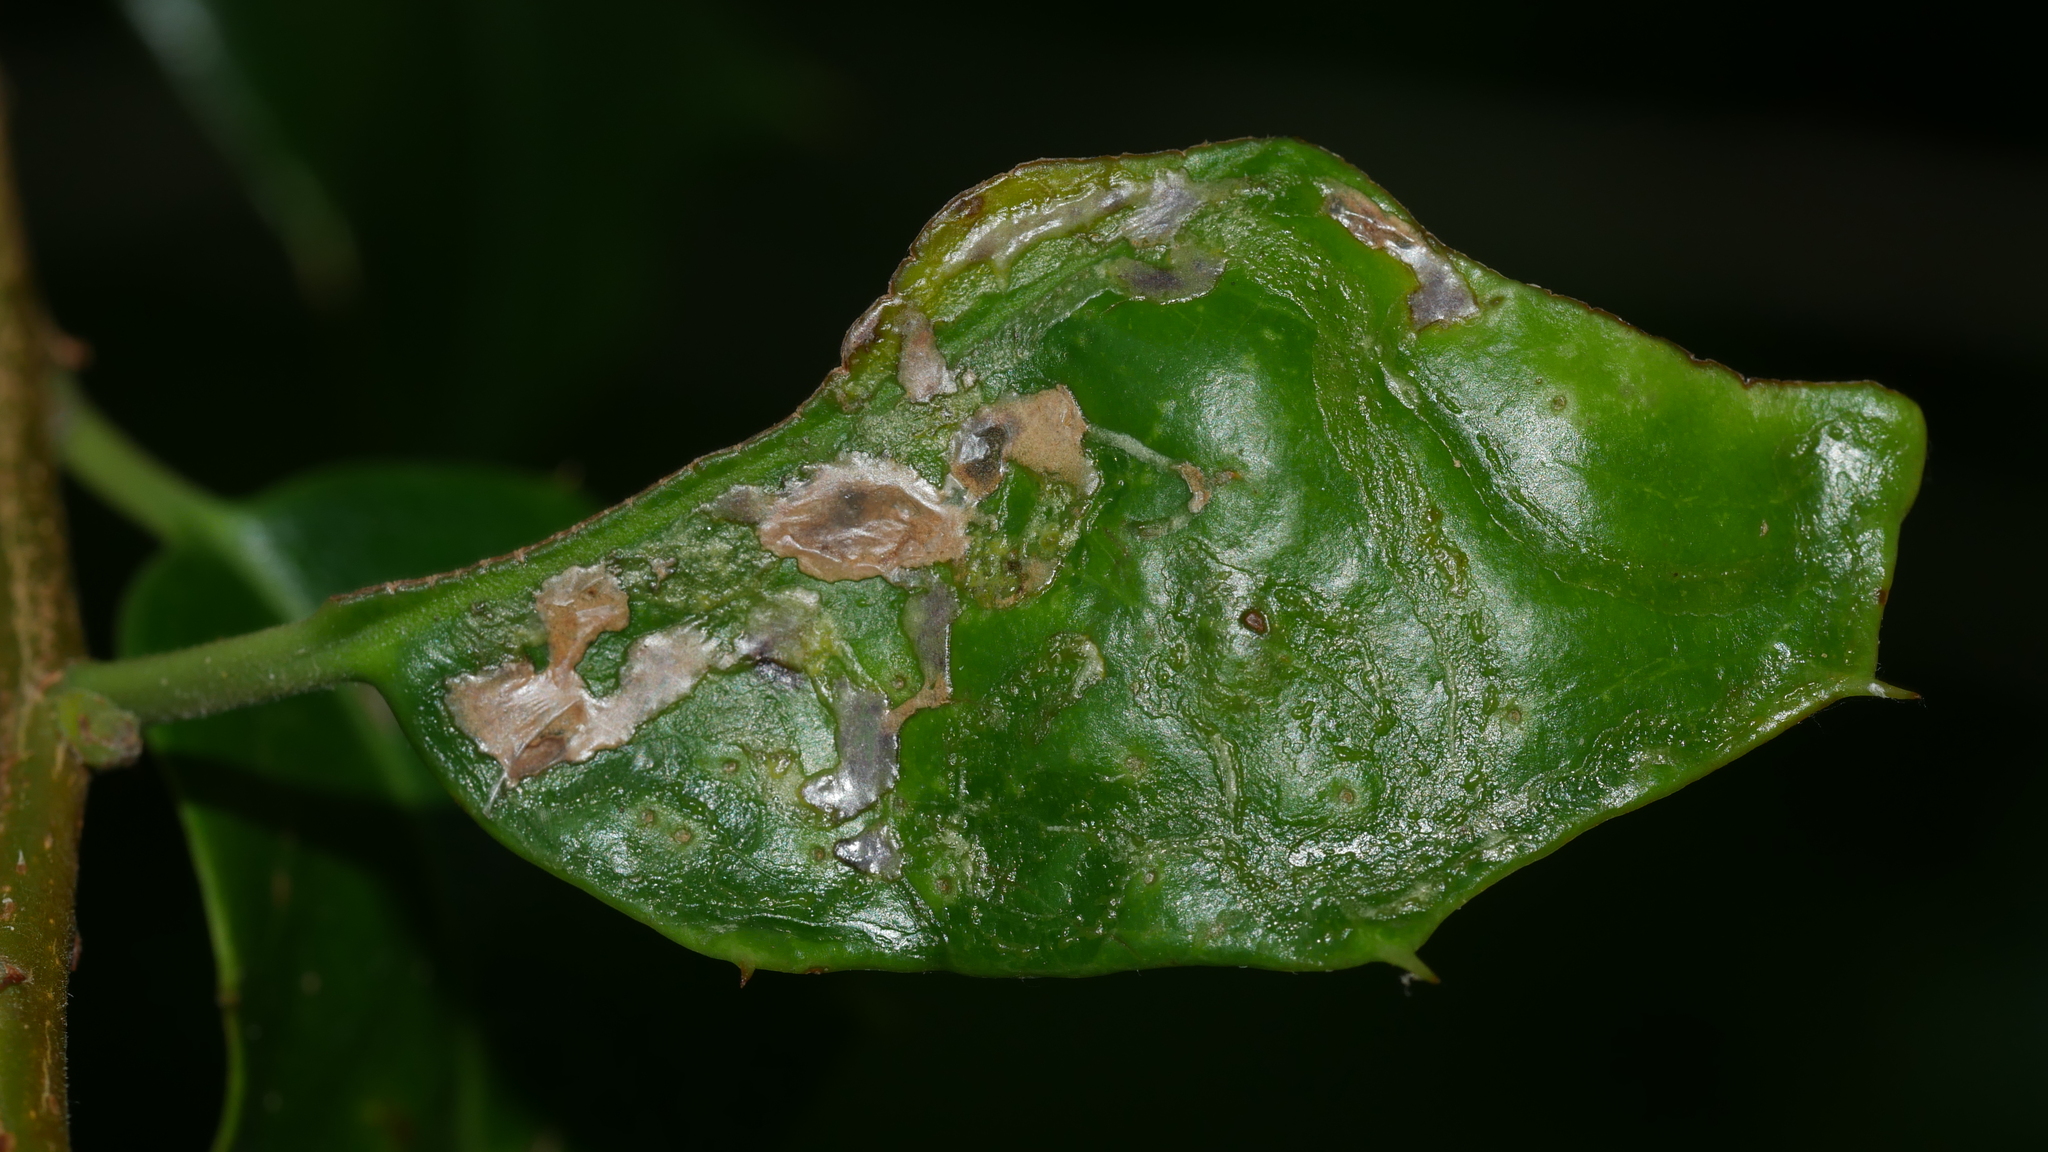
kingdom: Animalia
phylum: Arthropoda
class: Insecta
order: Diptera
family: Agromyzidae
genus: Phytomyza
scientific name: Phytomyza opacae
